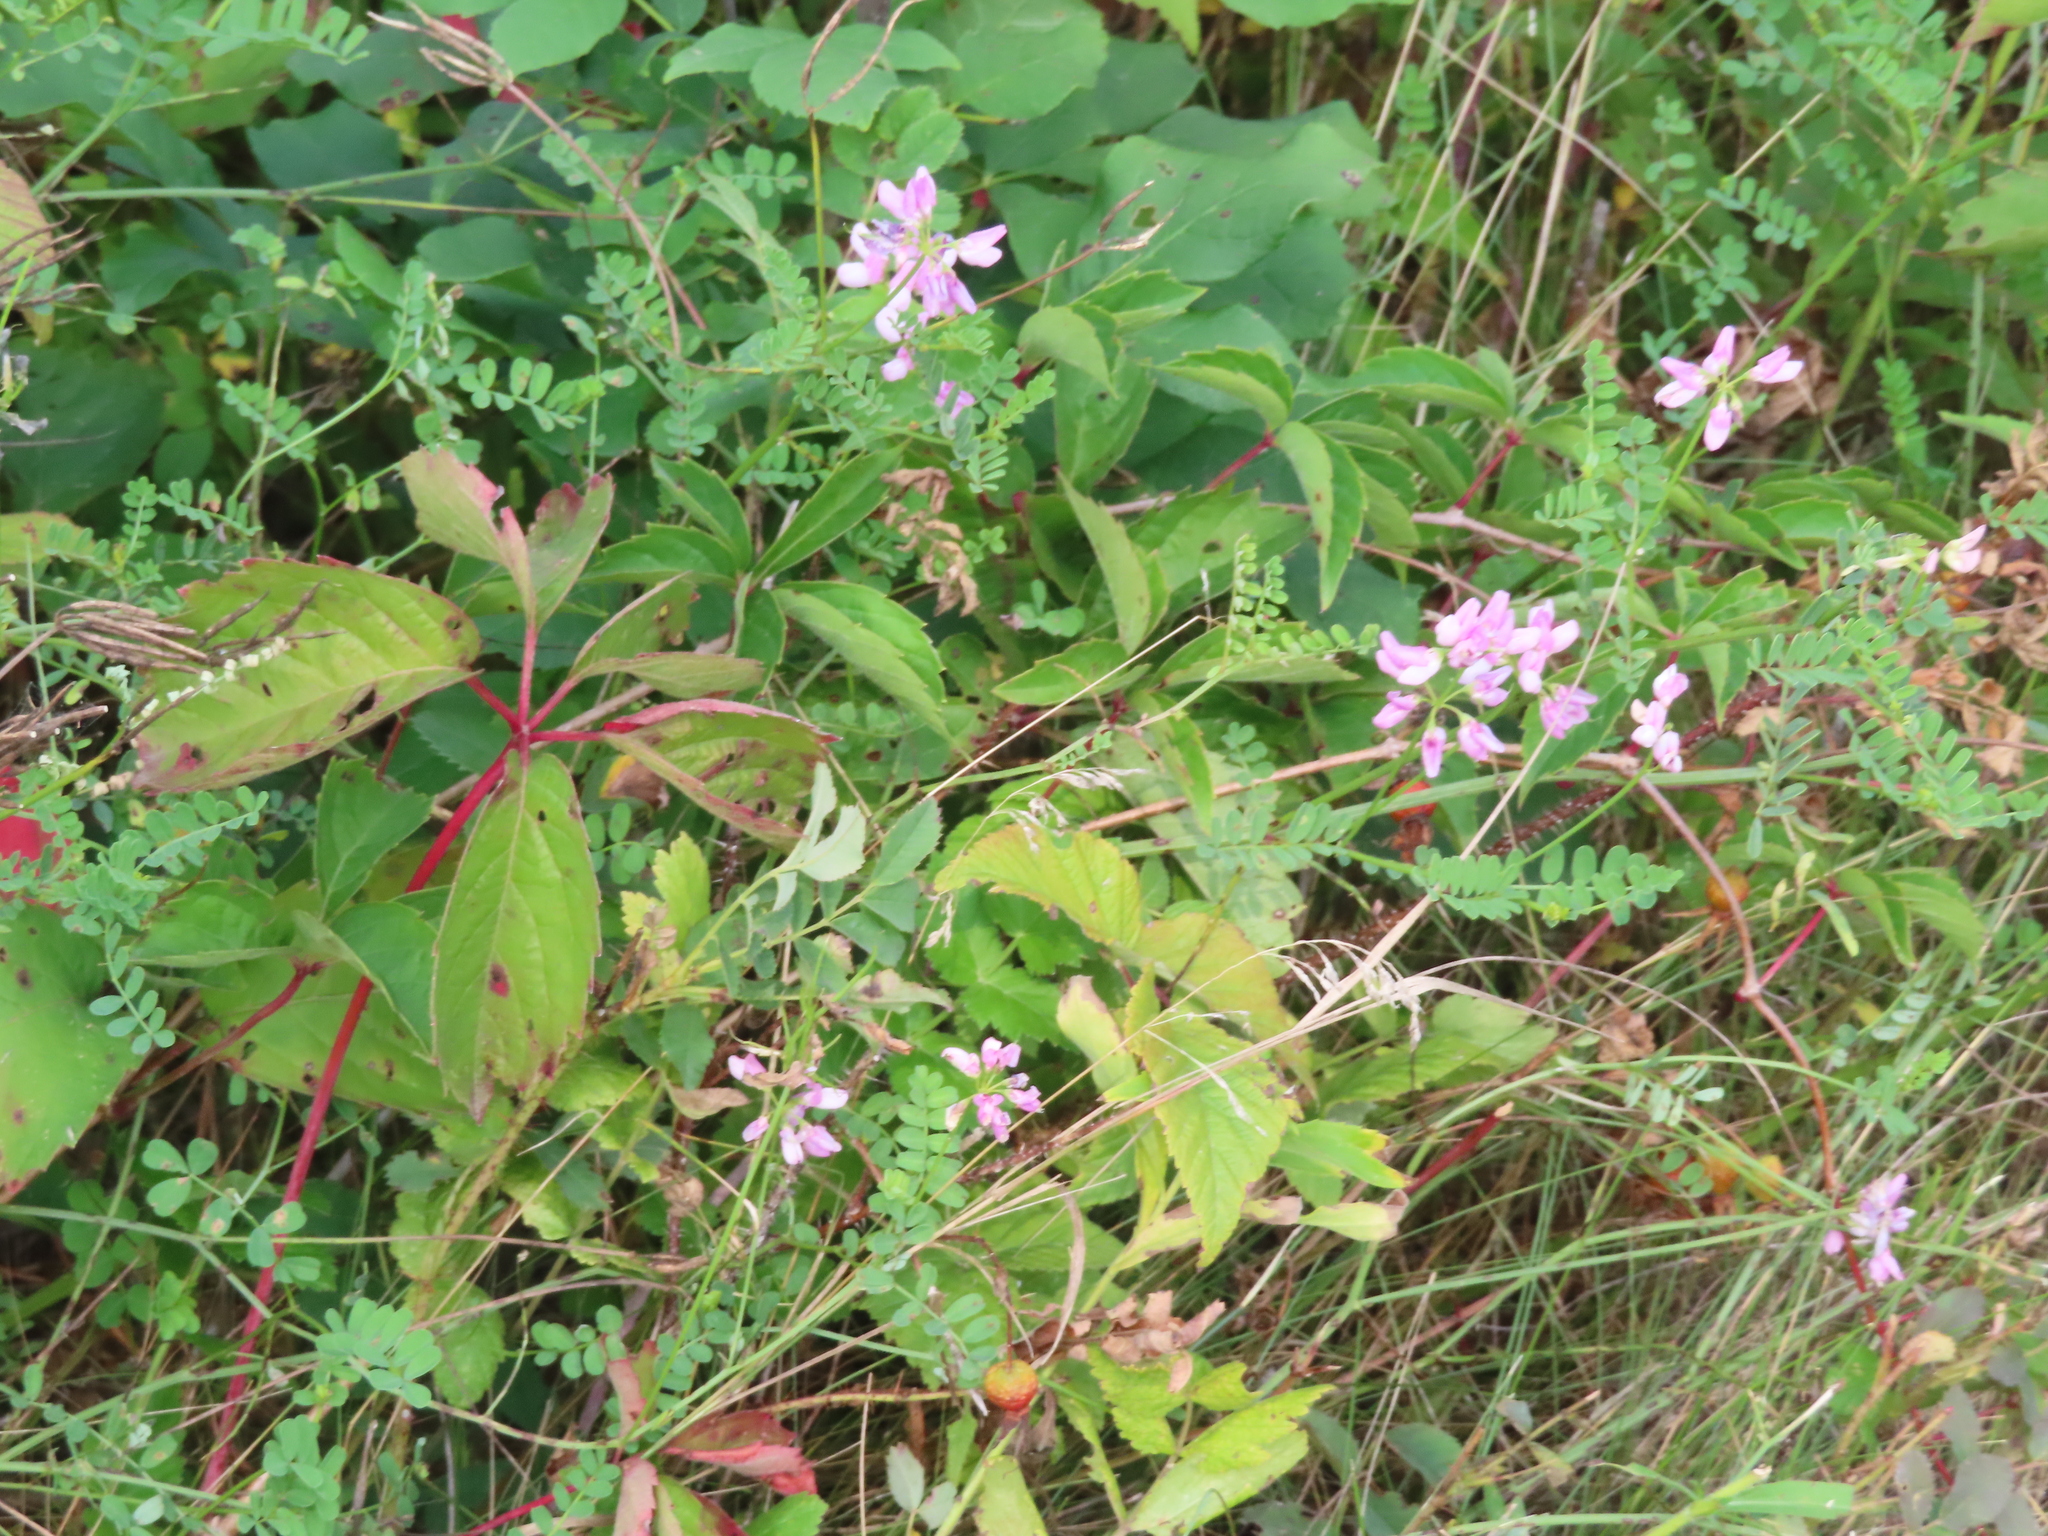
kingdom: Plantae
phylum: Tracheophyta
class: Magnoliopsida
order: Fabales
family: Fabaceae
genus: Coronilla
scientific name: Coronilla varia
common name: Crownvetch
